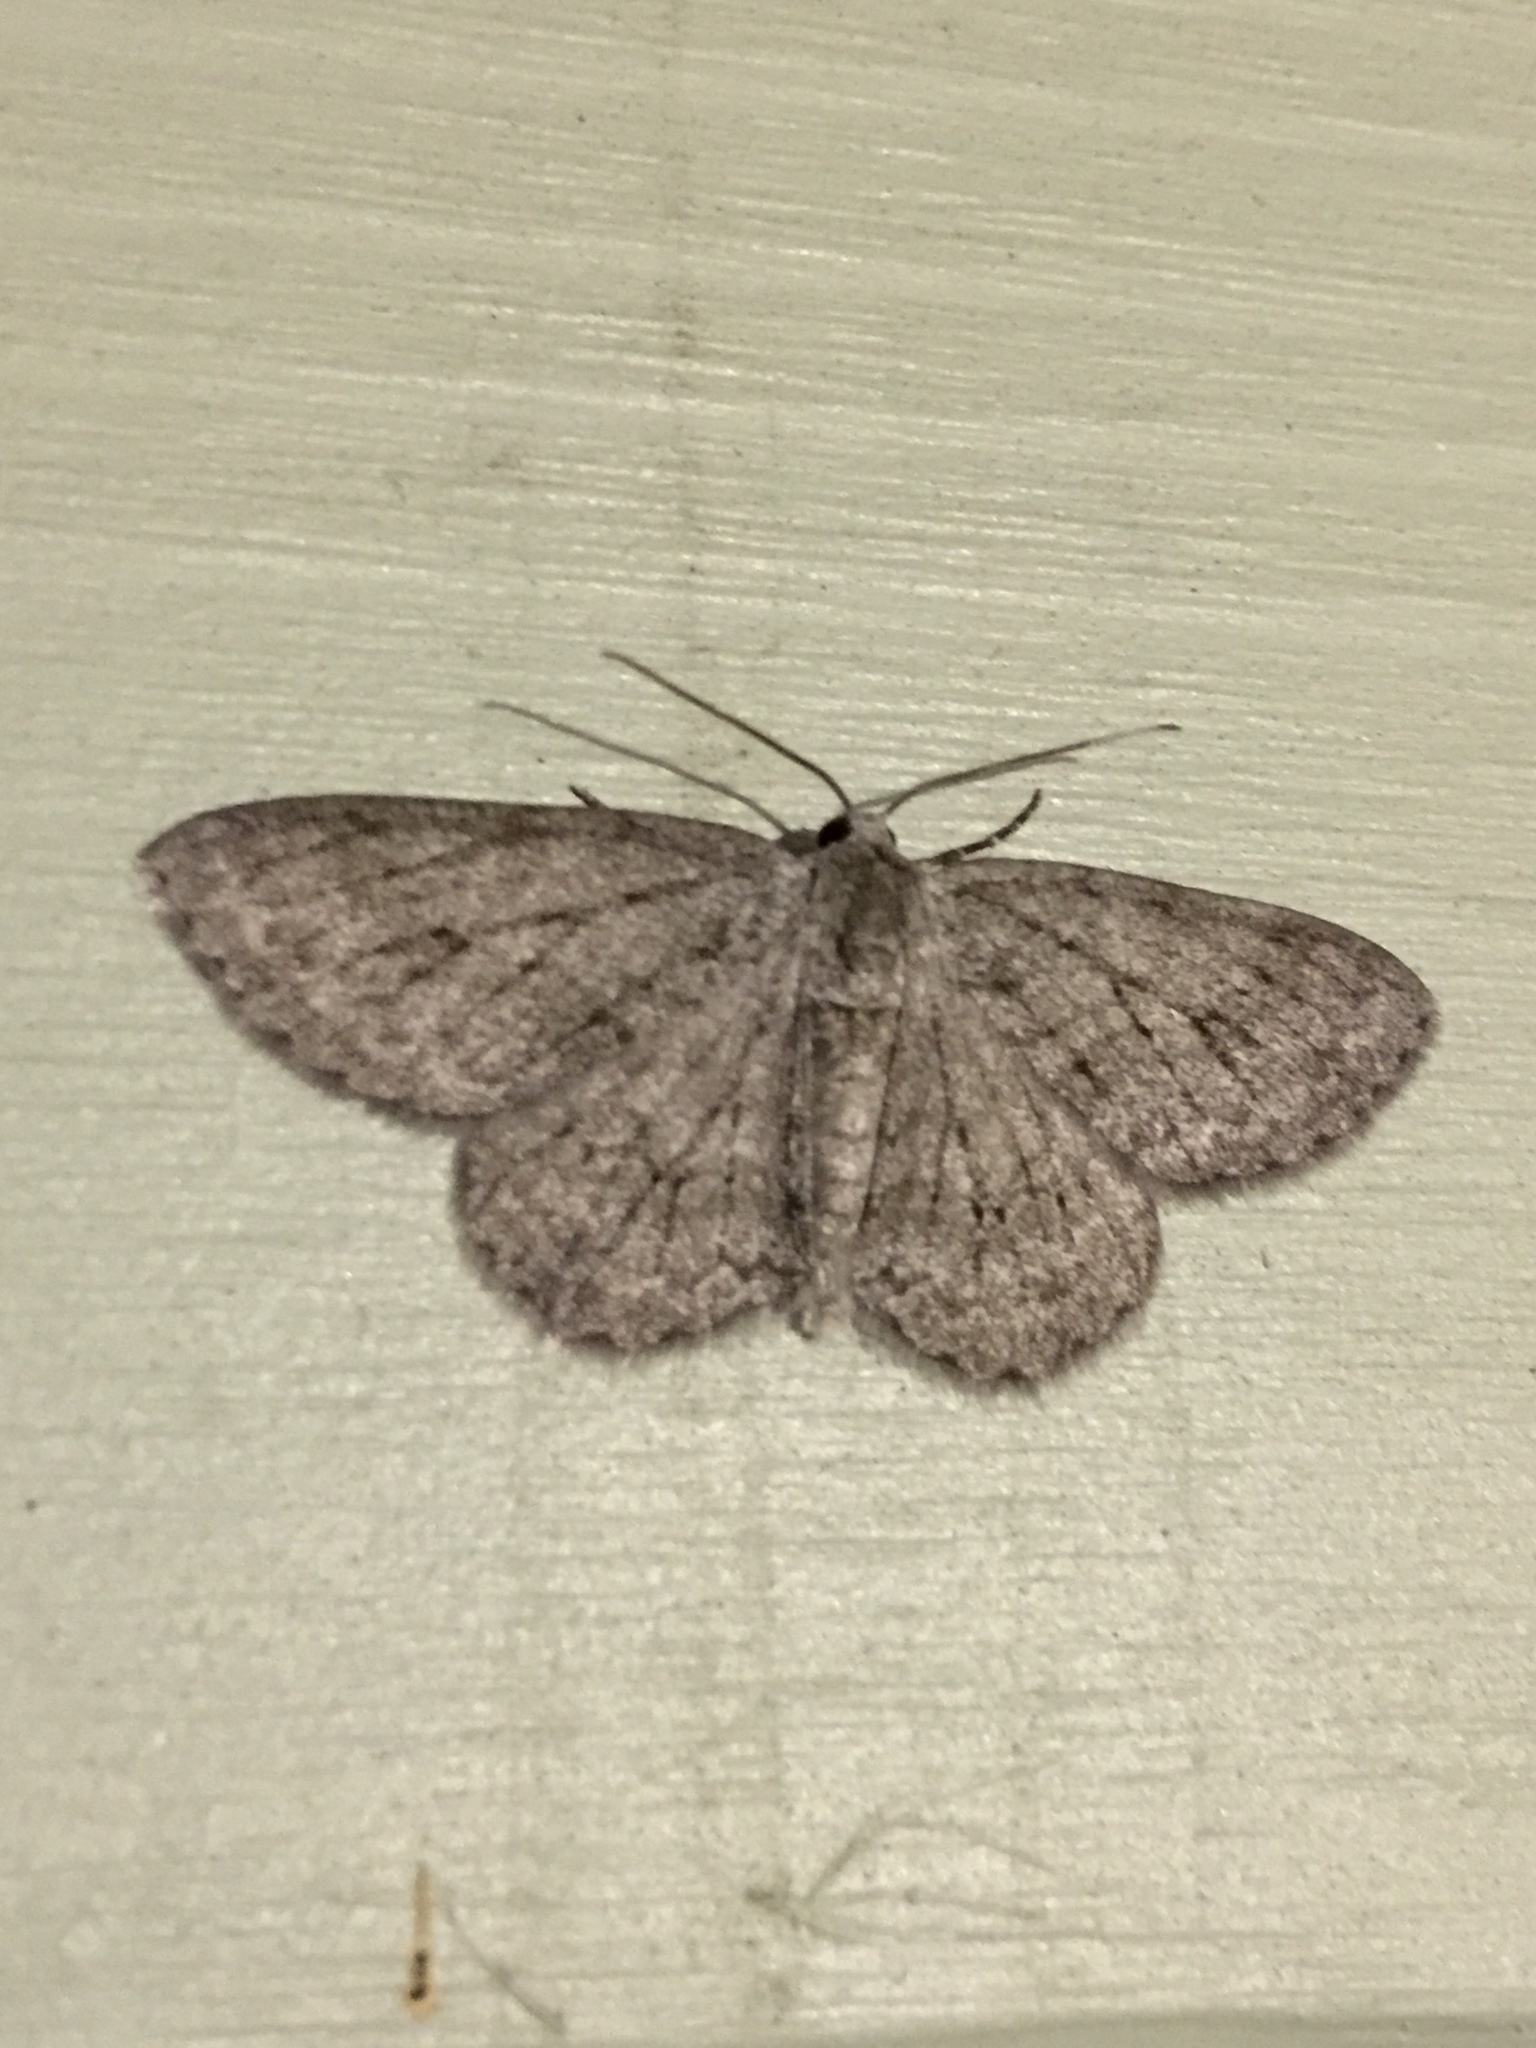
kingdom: Animalia
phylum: Arthropoda
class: Insecta
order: Lepidoptera
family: Geometridae
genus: Ectropis
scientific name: Ectropis crepuscularia
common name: Engrailed
